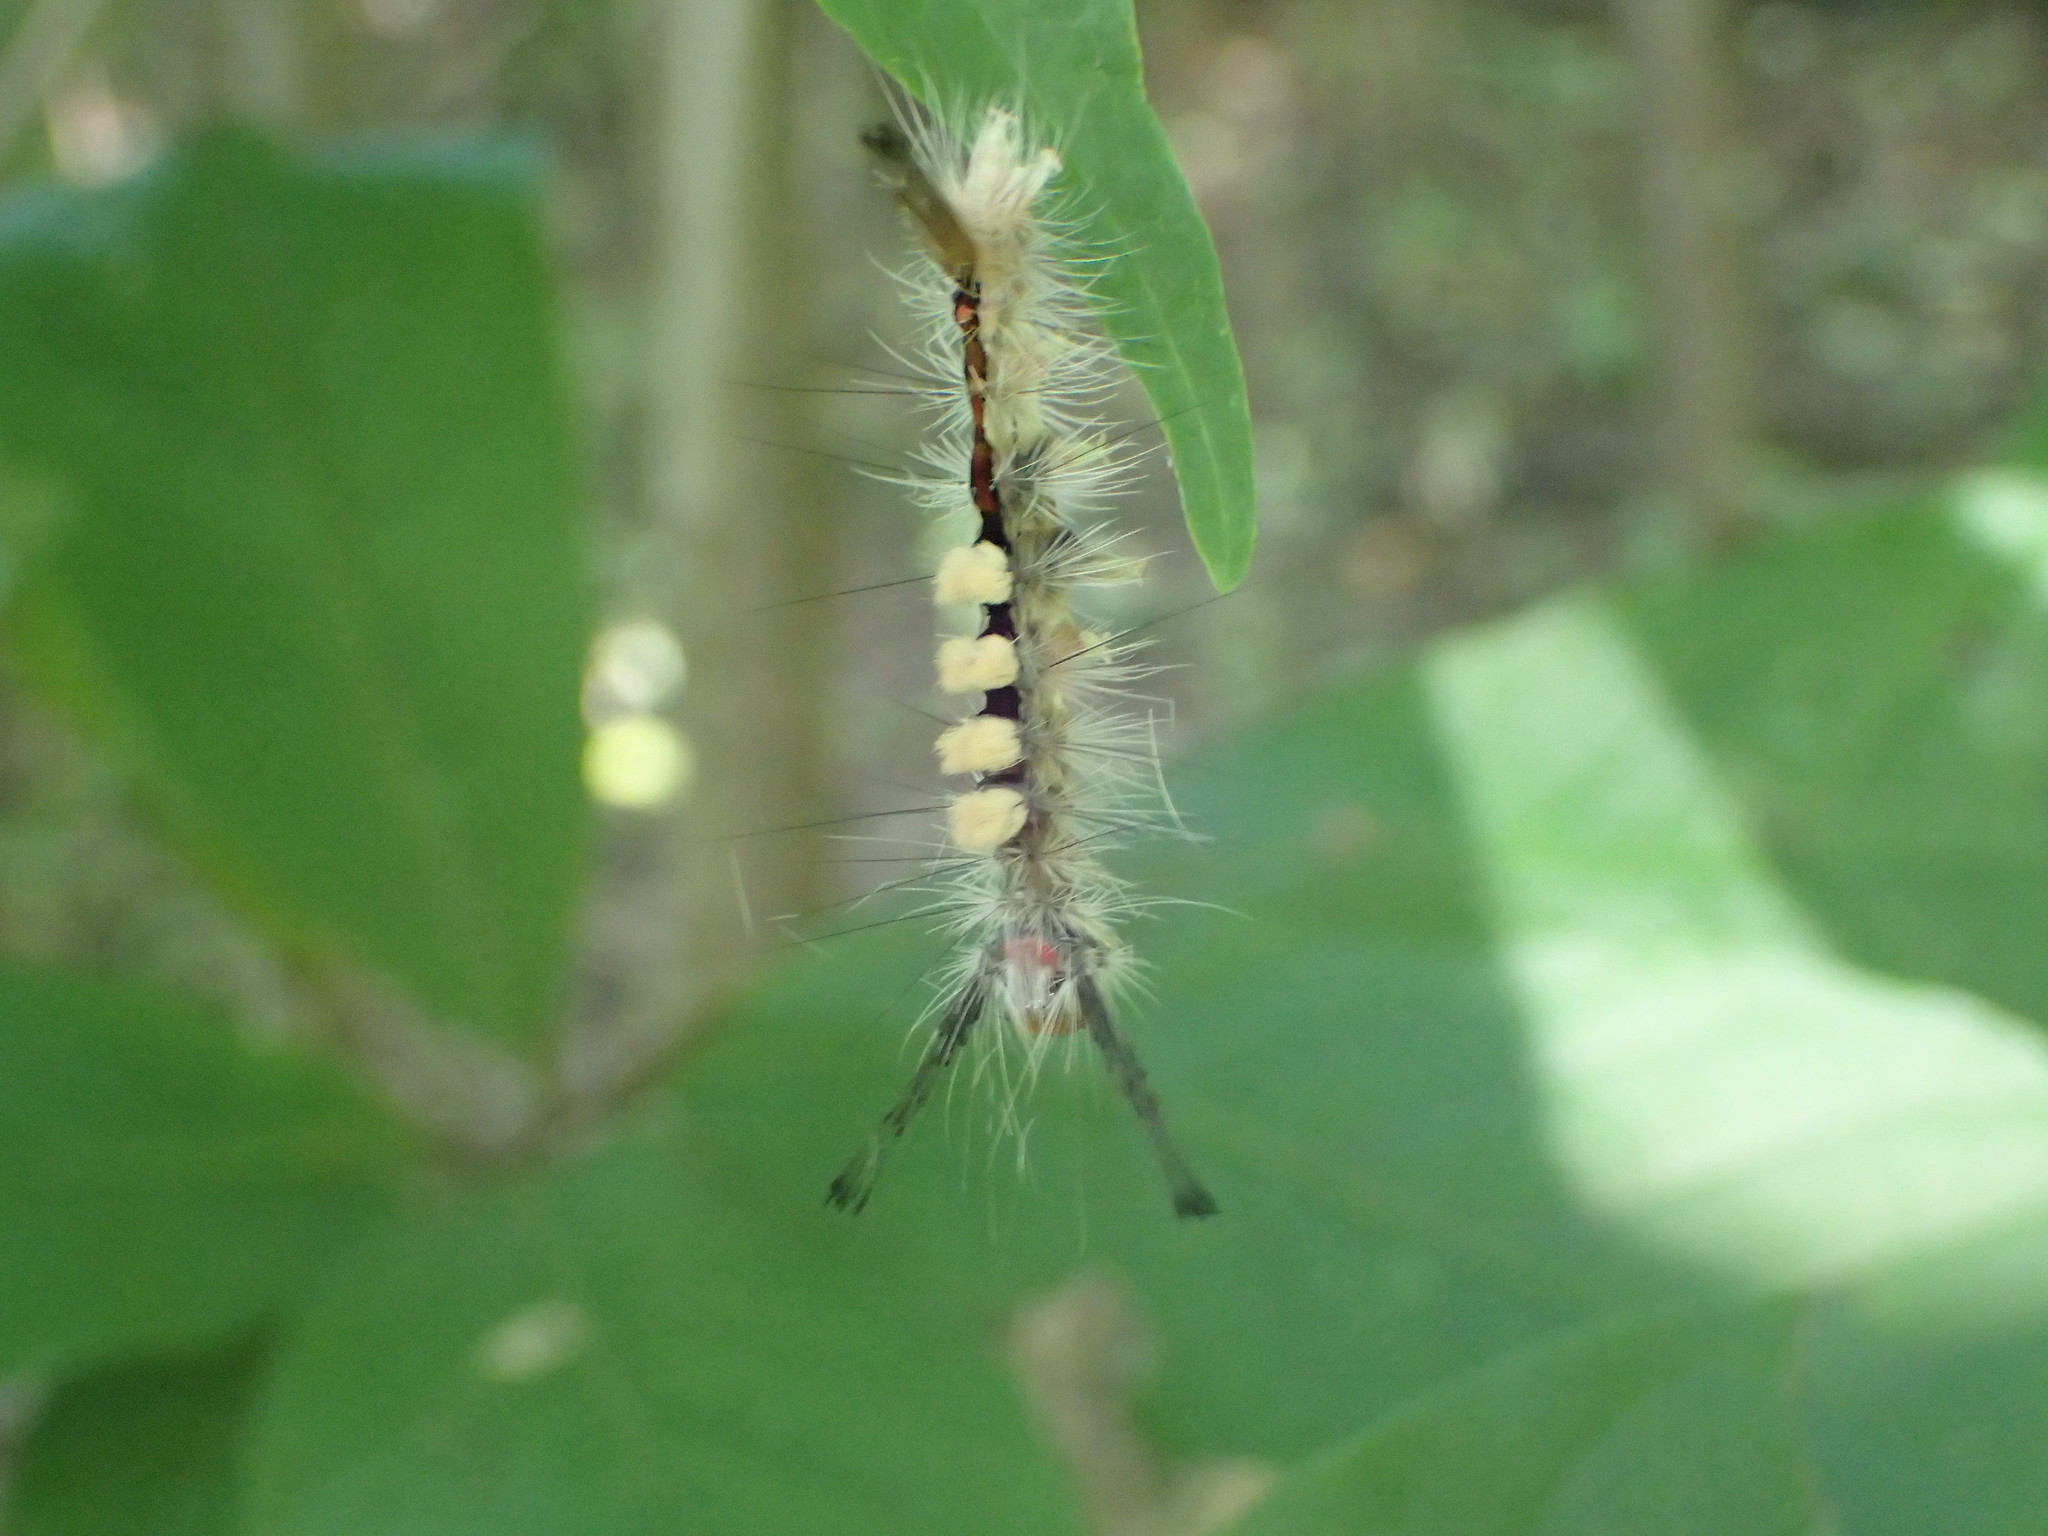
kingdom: Animalia
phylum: Arthropoda
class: Insecta
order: Lepidoptera
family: Erebidae
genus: Orgyia
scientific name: Orgyia leucostigma
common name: White-marked tussock moth
